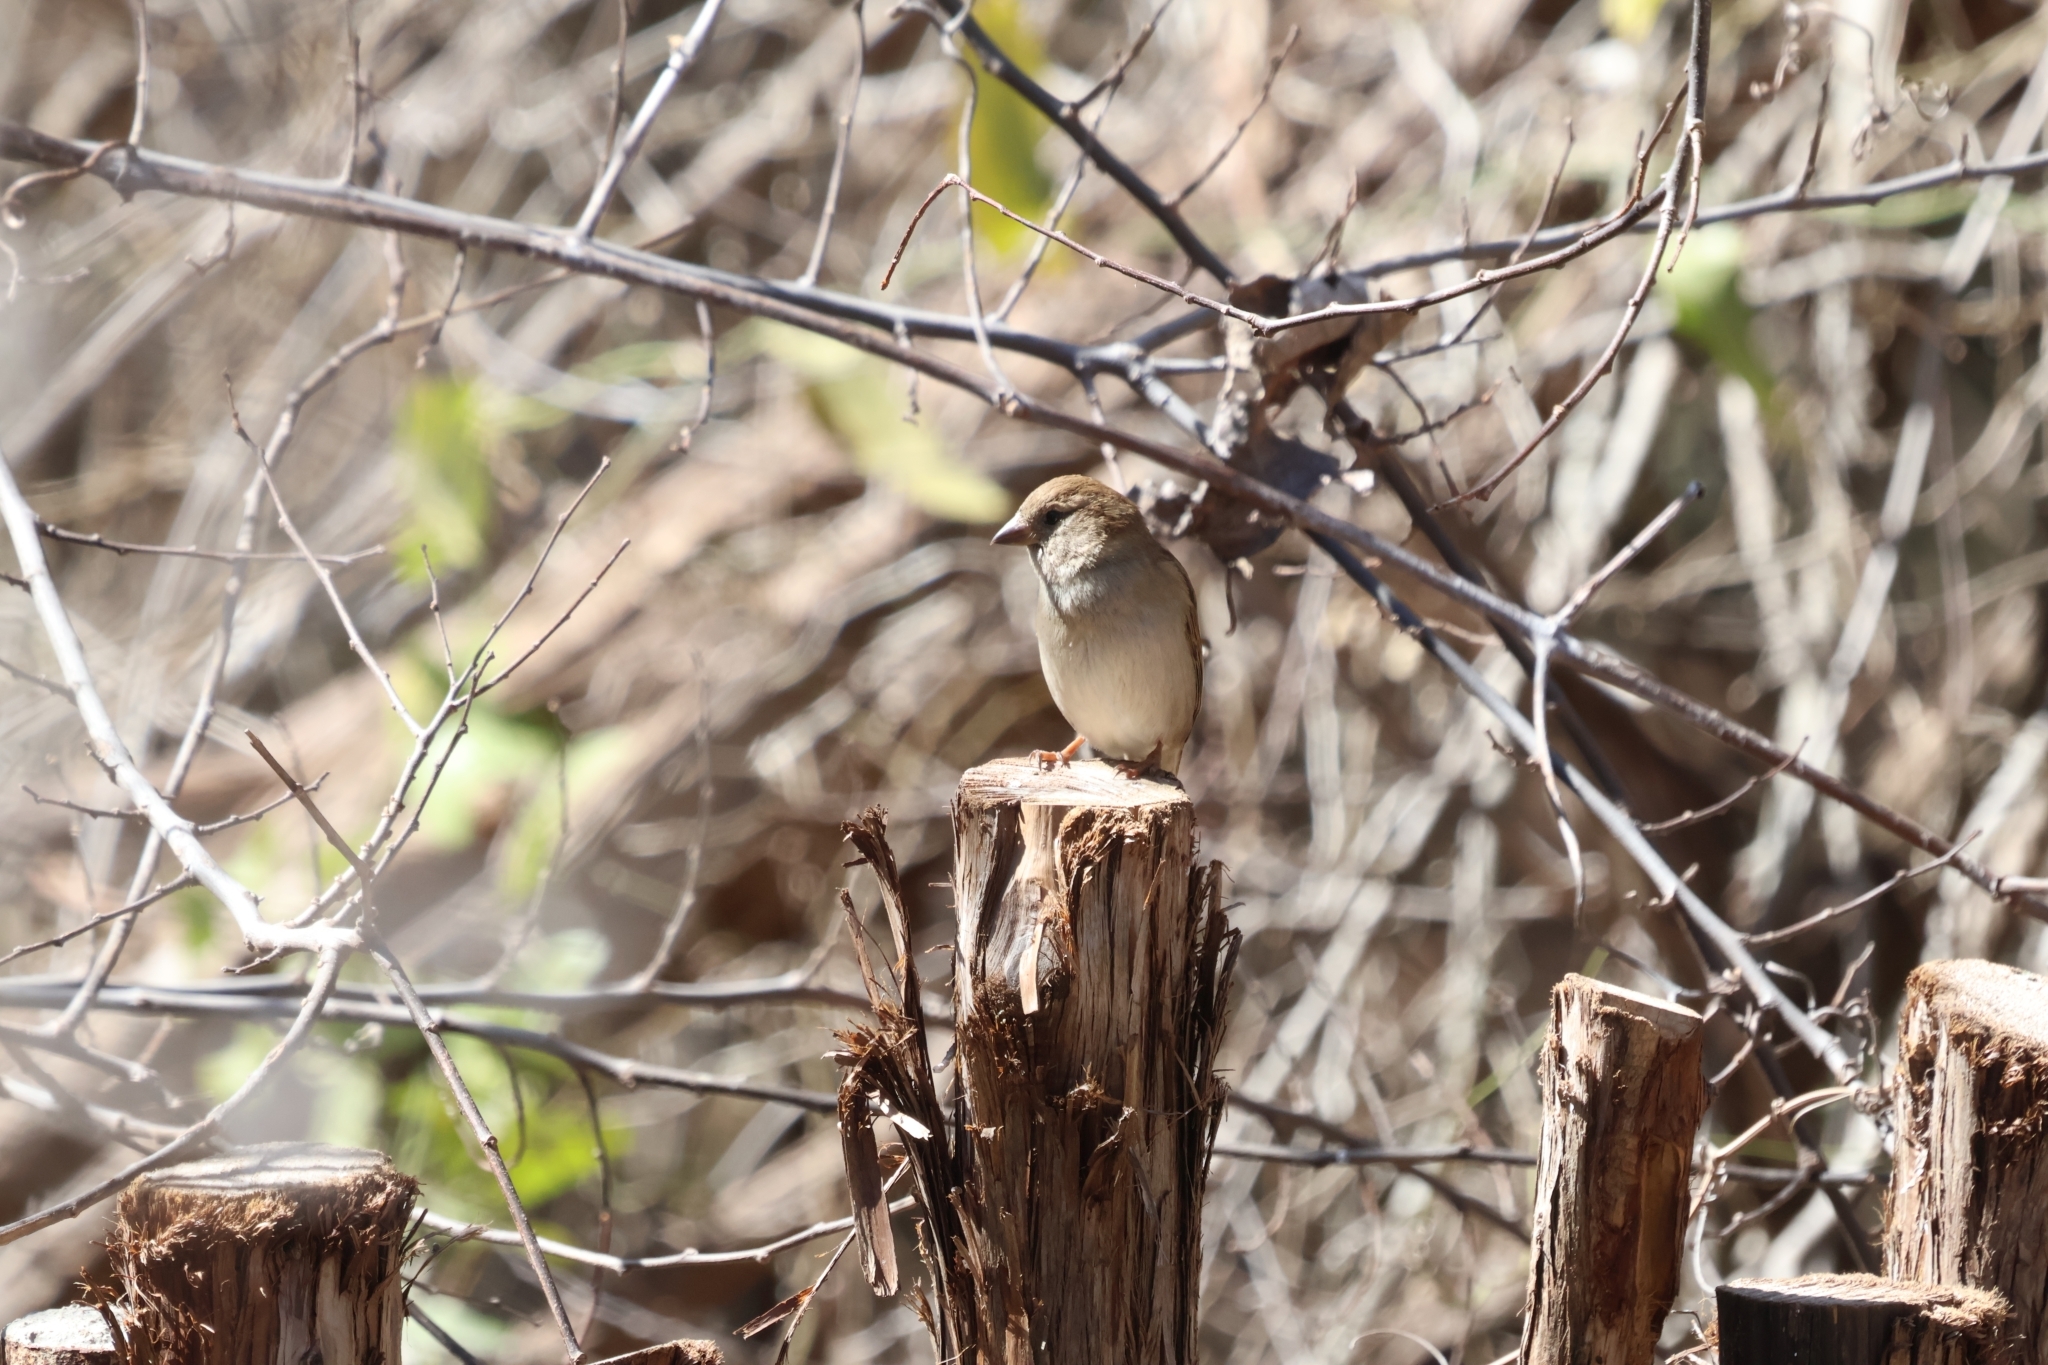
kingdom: Animalia
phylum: Chordata
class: Aves
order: Passeriformes
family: Passeridae
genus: Passer
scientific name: Passer domesticus
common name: House sparrow
